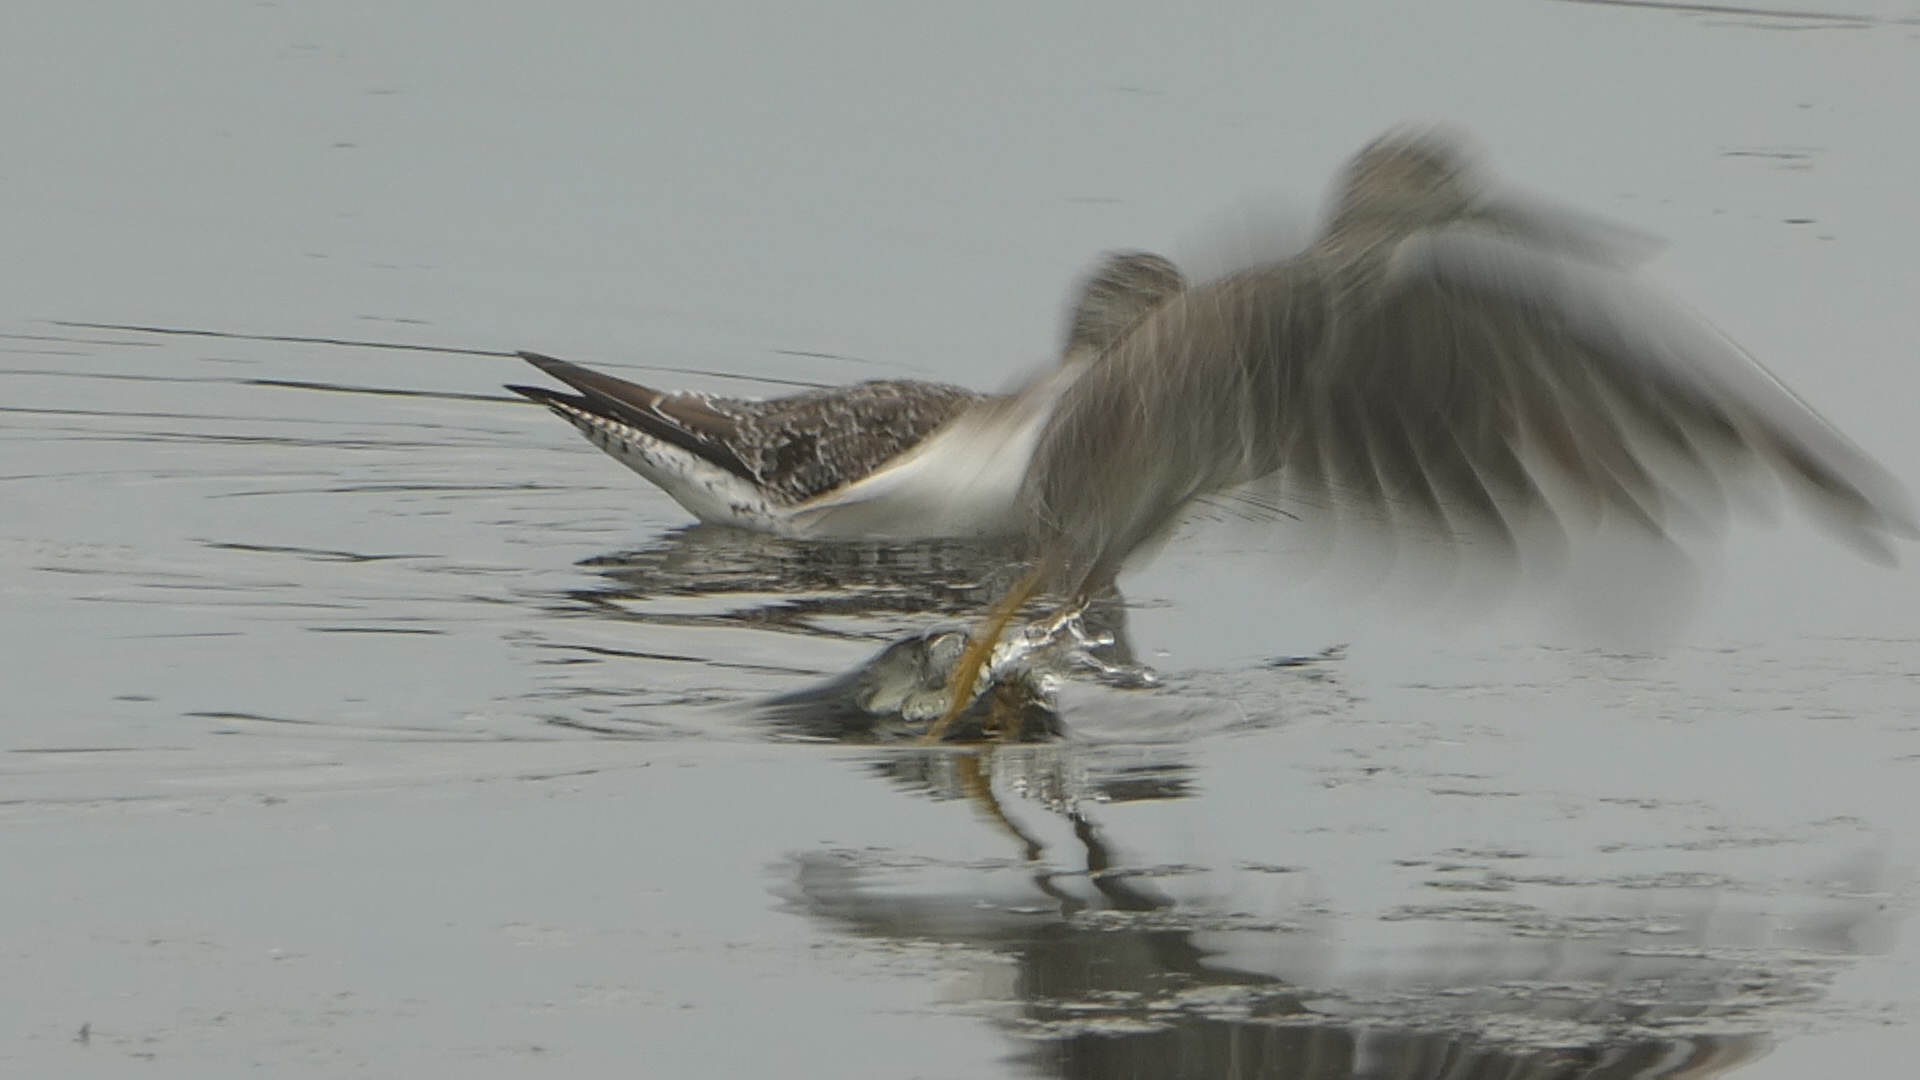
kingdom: Animalia
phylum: Chordata
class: Aves
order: Charadriiformes
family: Scolopacidae
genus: Tringa
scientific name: Tringa melanoleuca
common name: Greater yellowlegs
